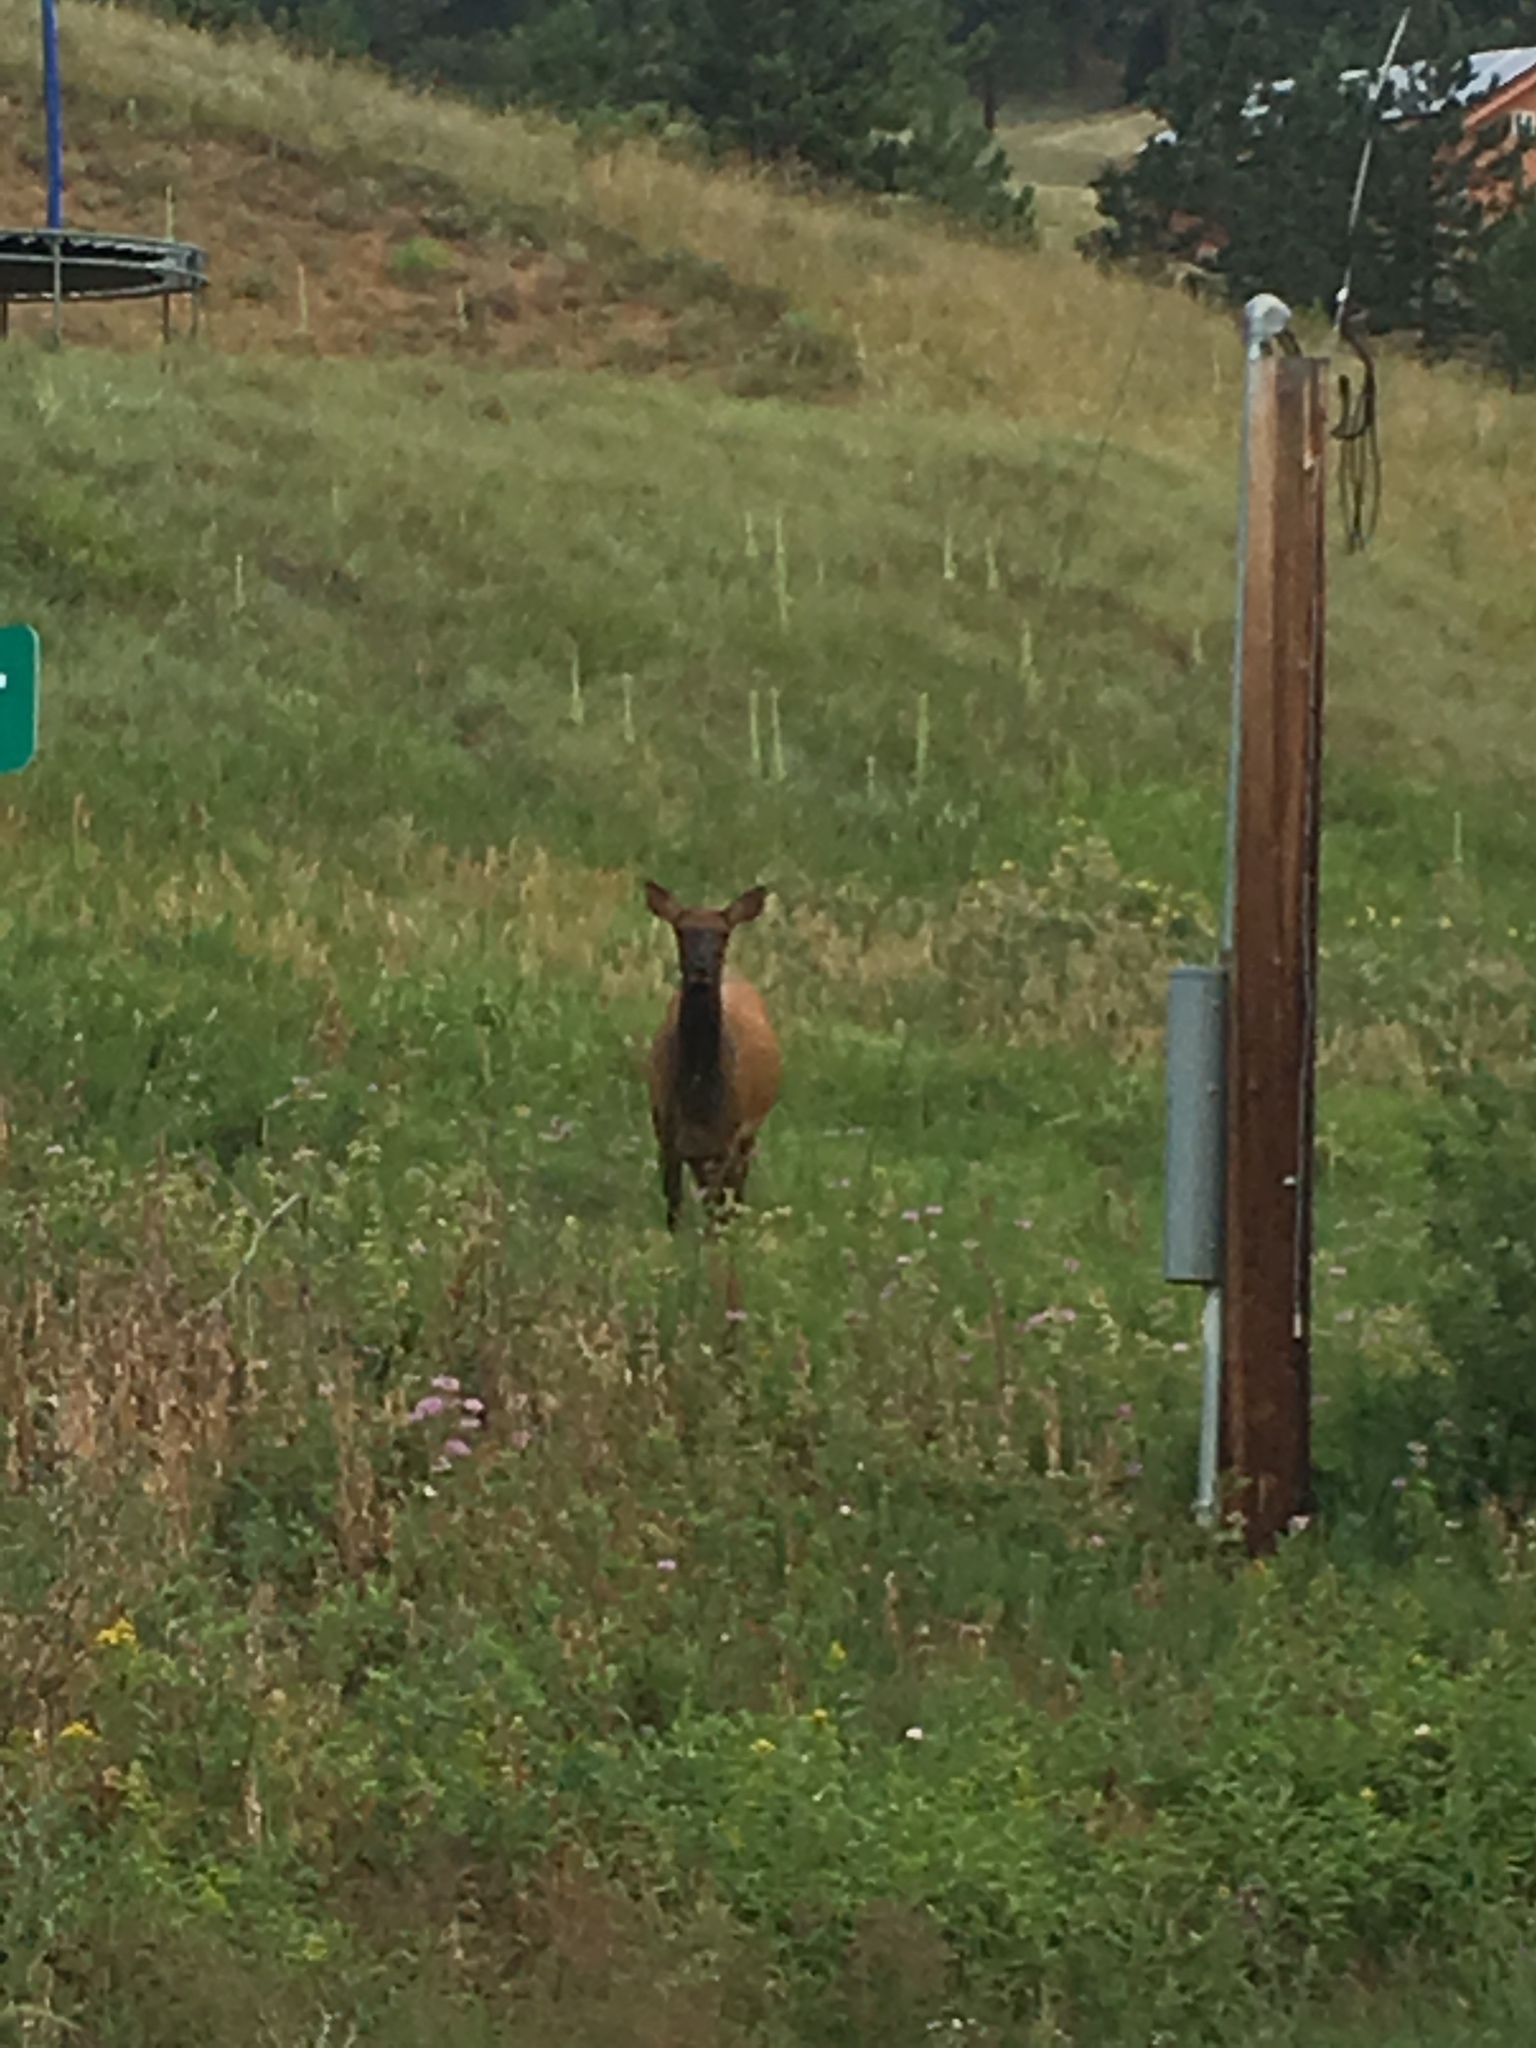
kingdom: Animalia
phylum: Chordata
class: Mammalia
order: Artiodactyla
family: Cervidae
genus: Cervus
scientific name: Cervus elaphus
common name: Red deer
